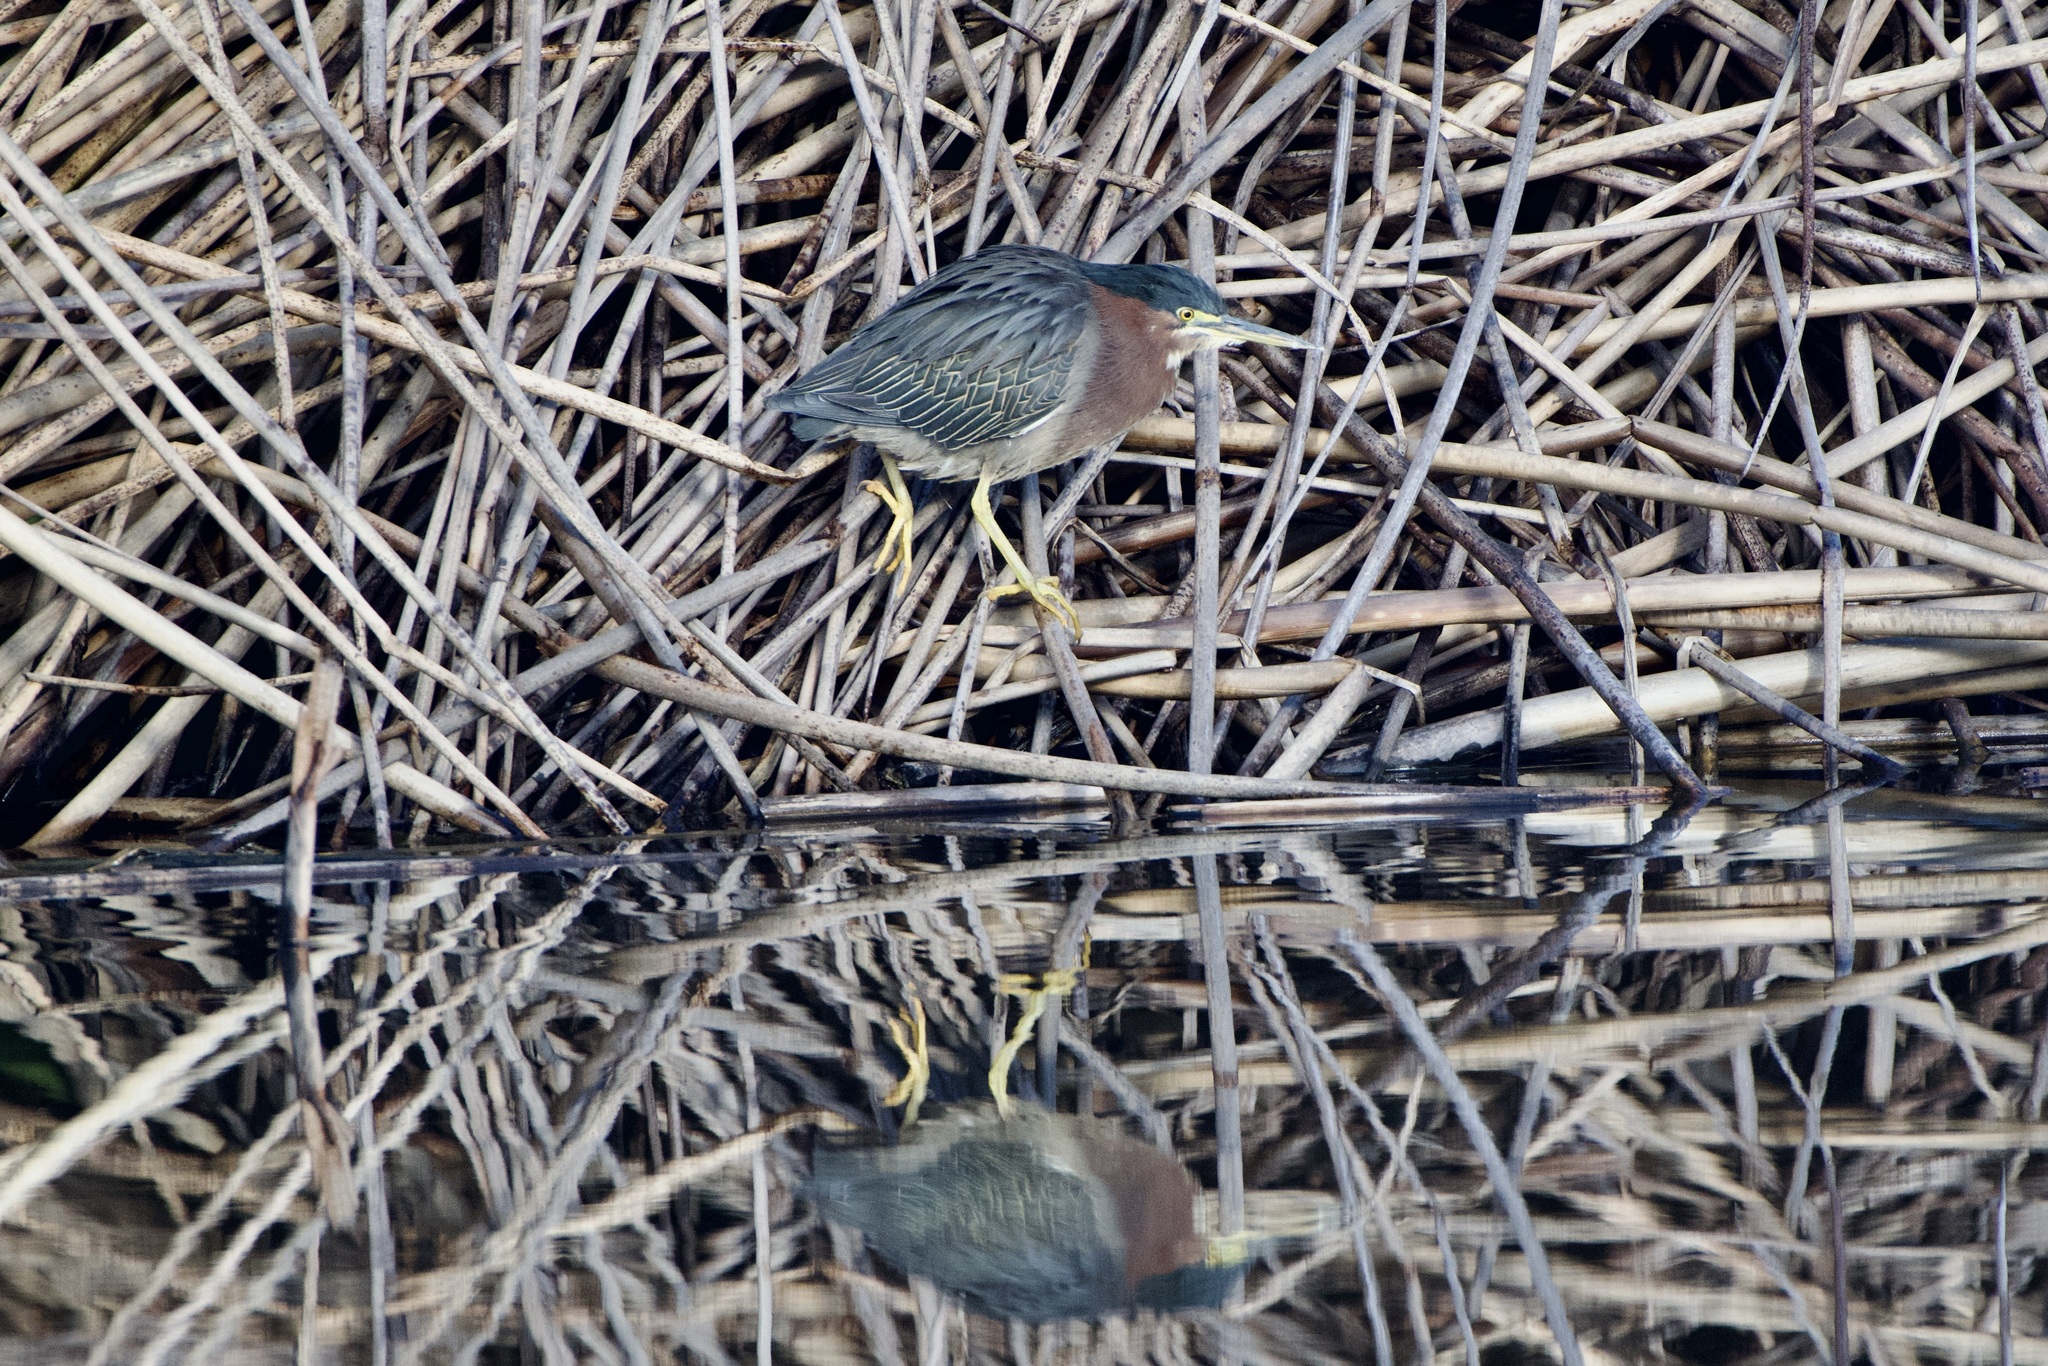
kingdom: Animalia
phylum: Chordata
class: Aves
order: Pelecaniformes
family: Ardeidae
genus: Butorides
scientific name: Butorides virescens
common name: Green heron
